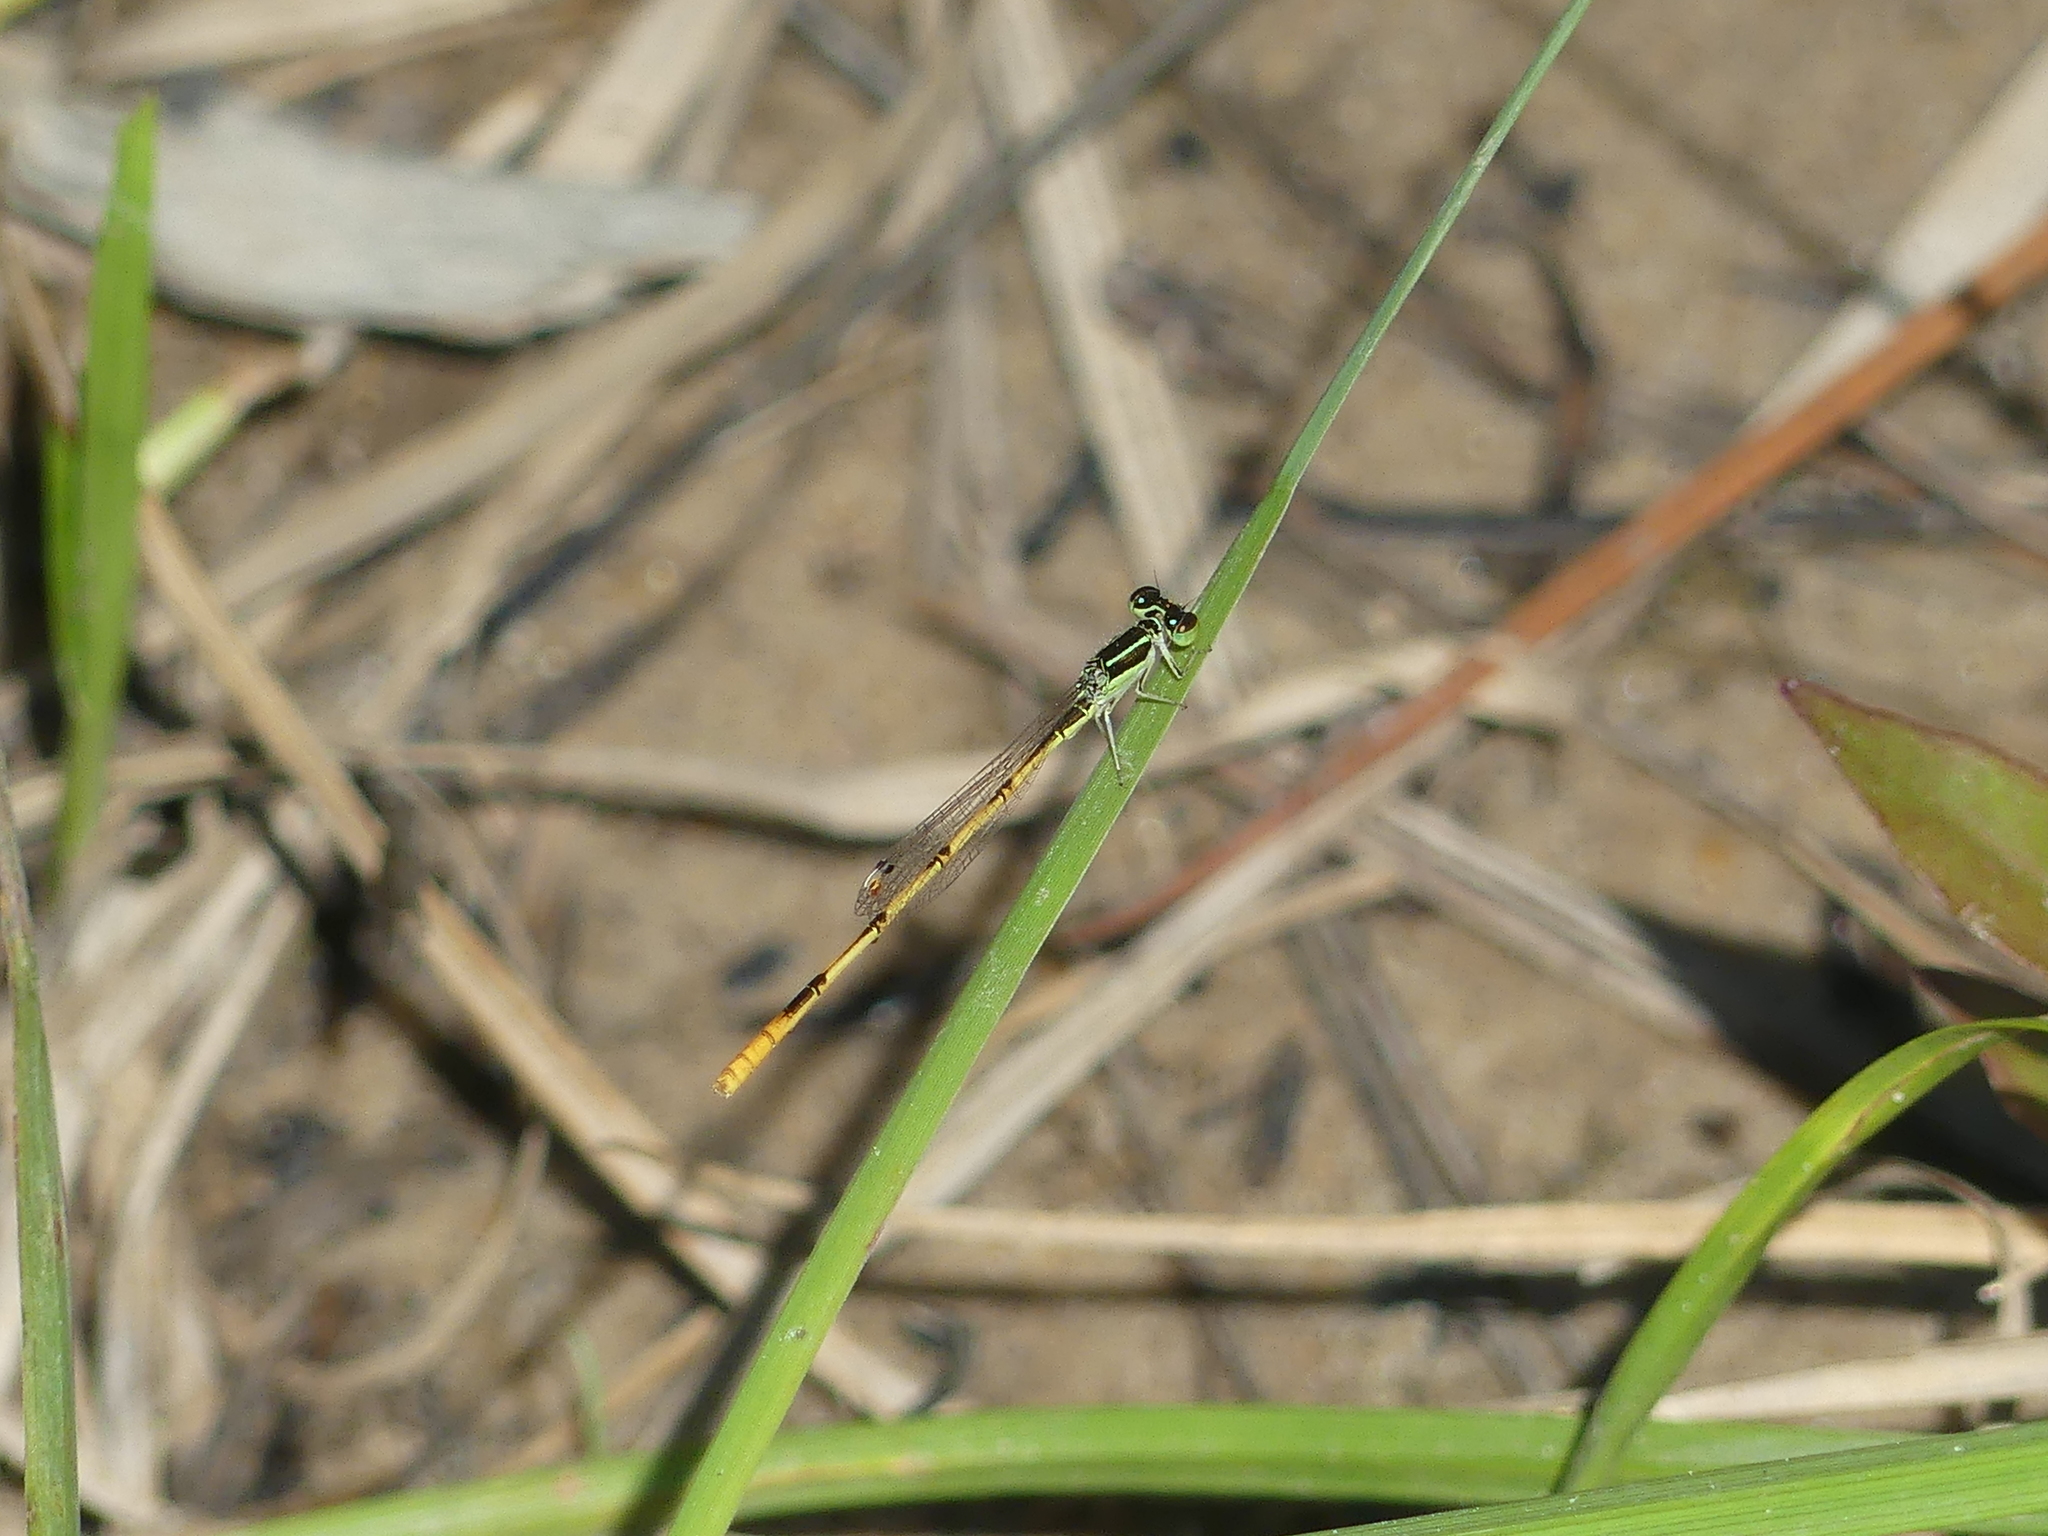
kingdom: Animalia
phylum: Arthropoda
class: Insecta
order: Odonata
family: Coenagrionidae
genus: Ischnura
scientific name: Ischnura hastata
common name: Citrine forktail
